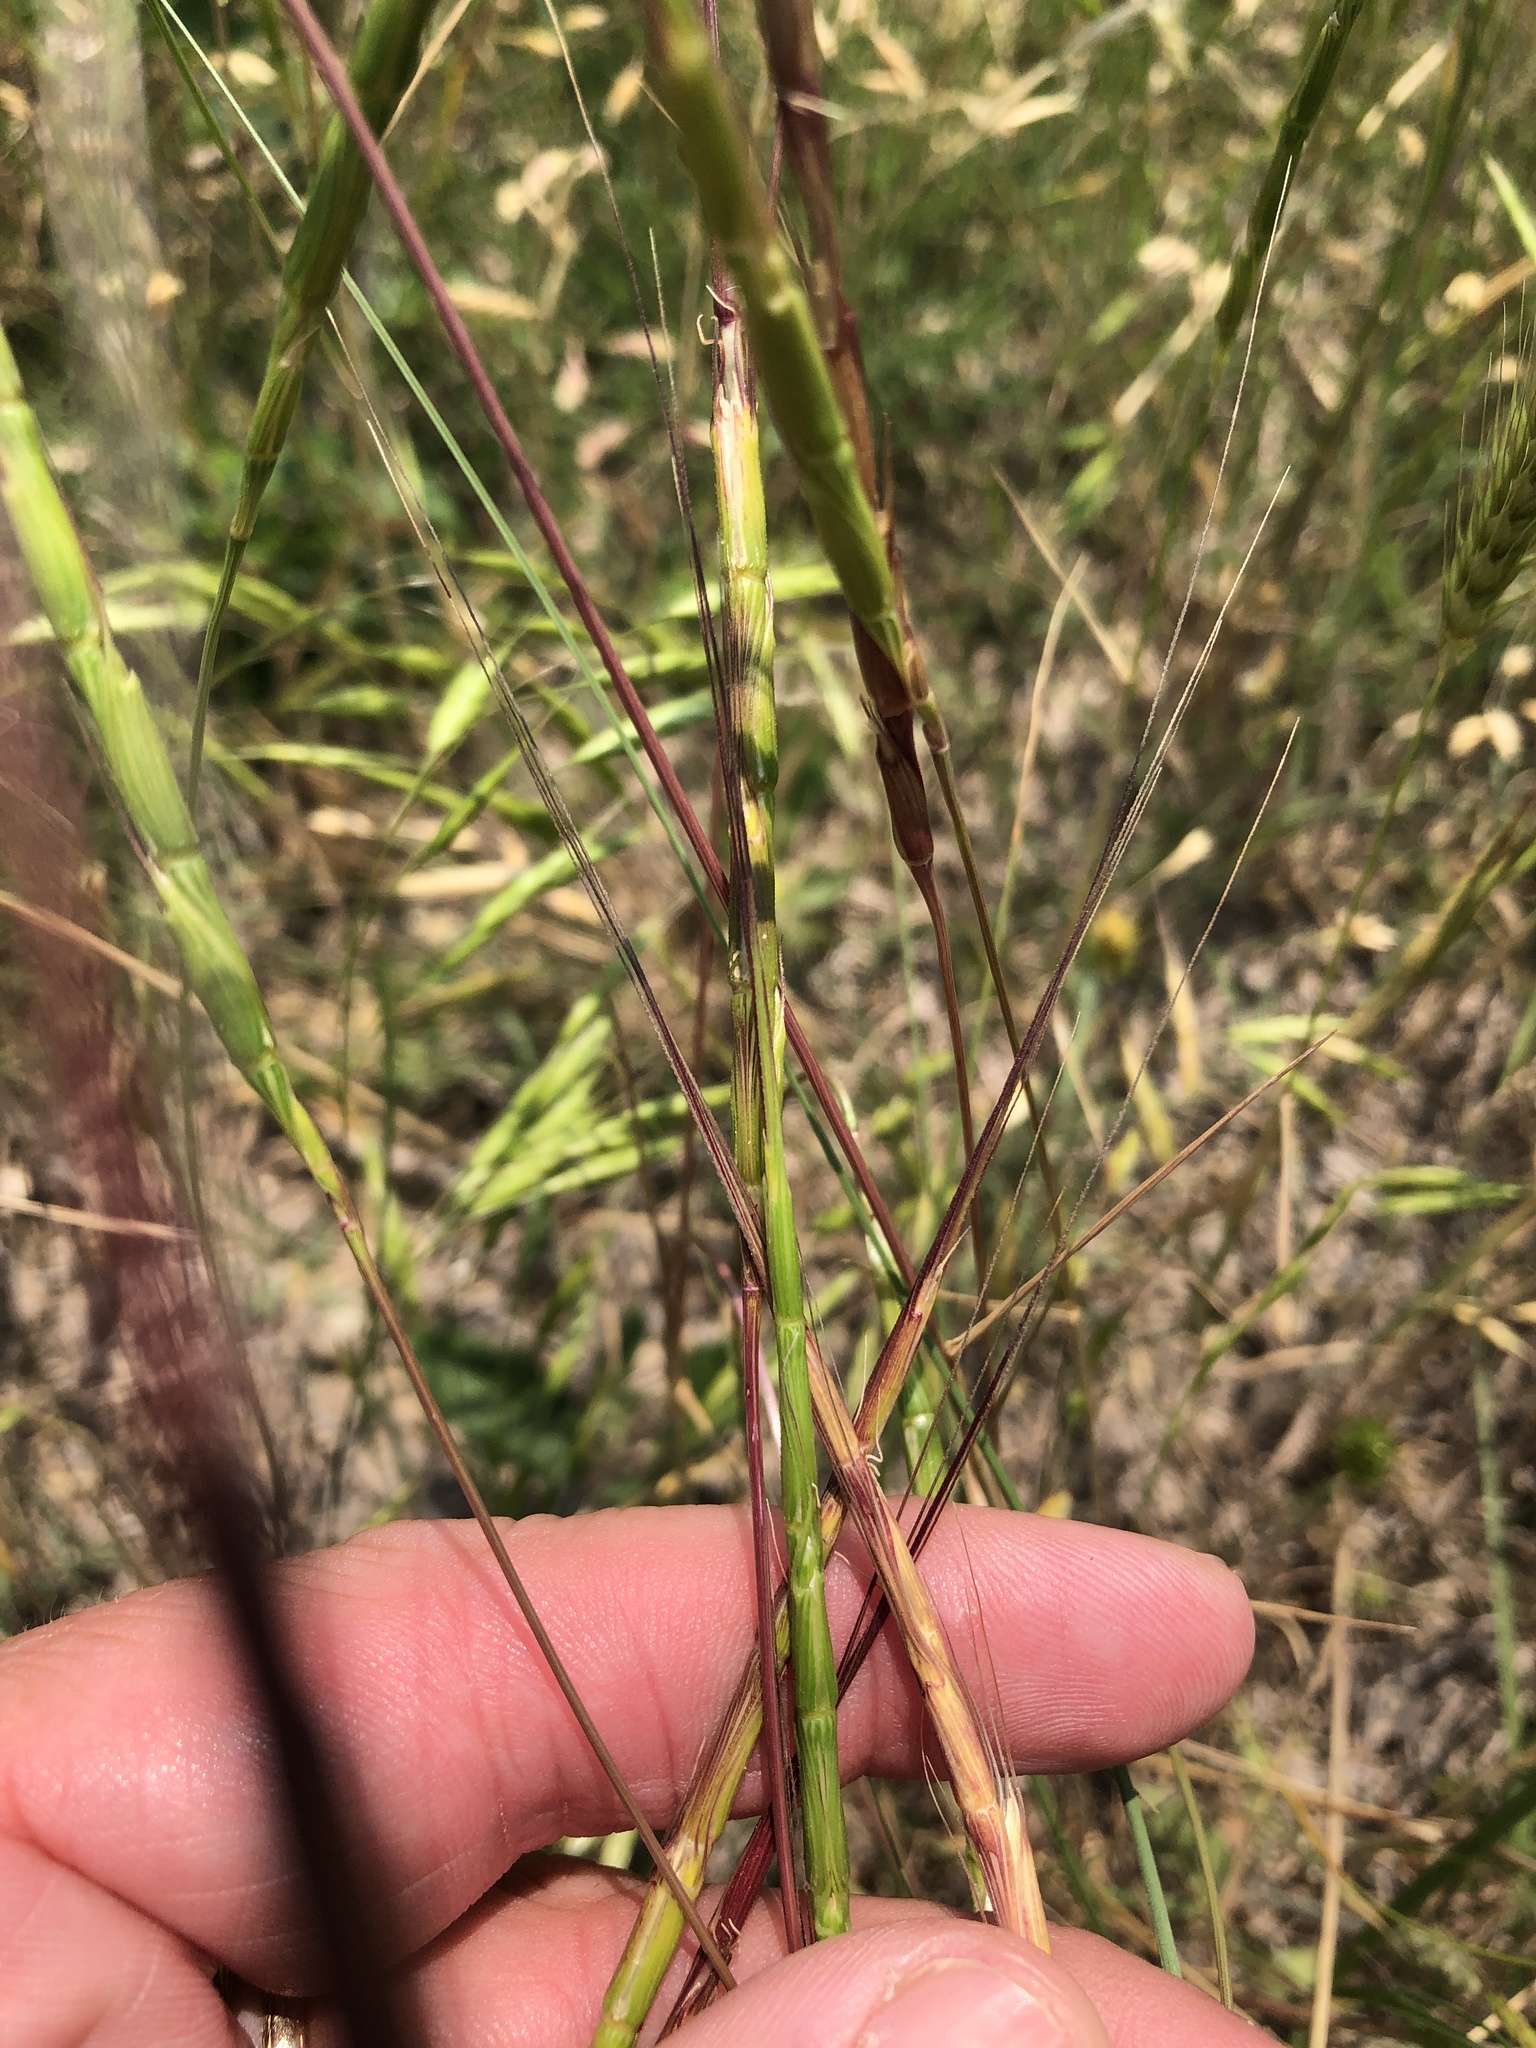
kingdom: Plantae
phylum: Tracheophyta
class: Liliopsida
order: Poales
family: Poaceae
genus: Aegilops
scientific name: Aegilops cylindrica
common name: Jointed goatgrass
